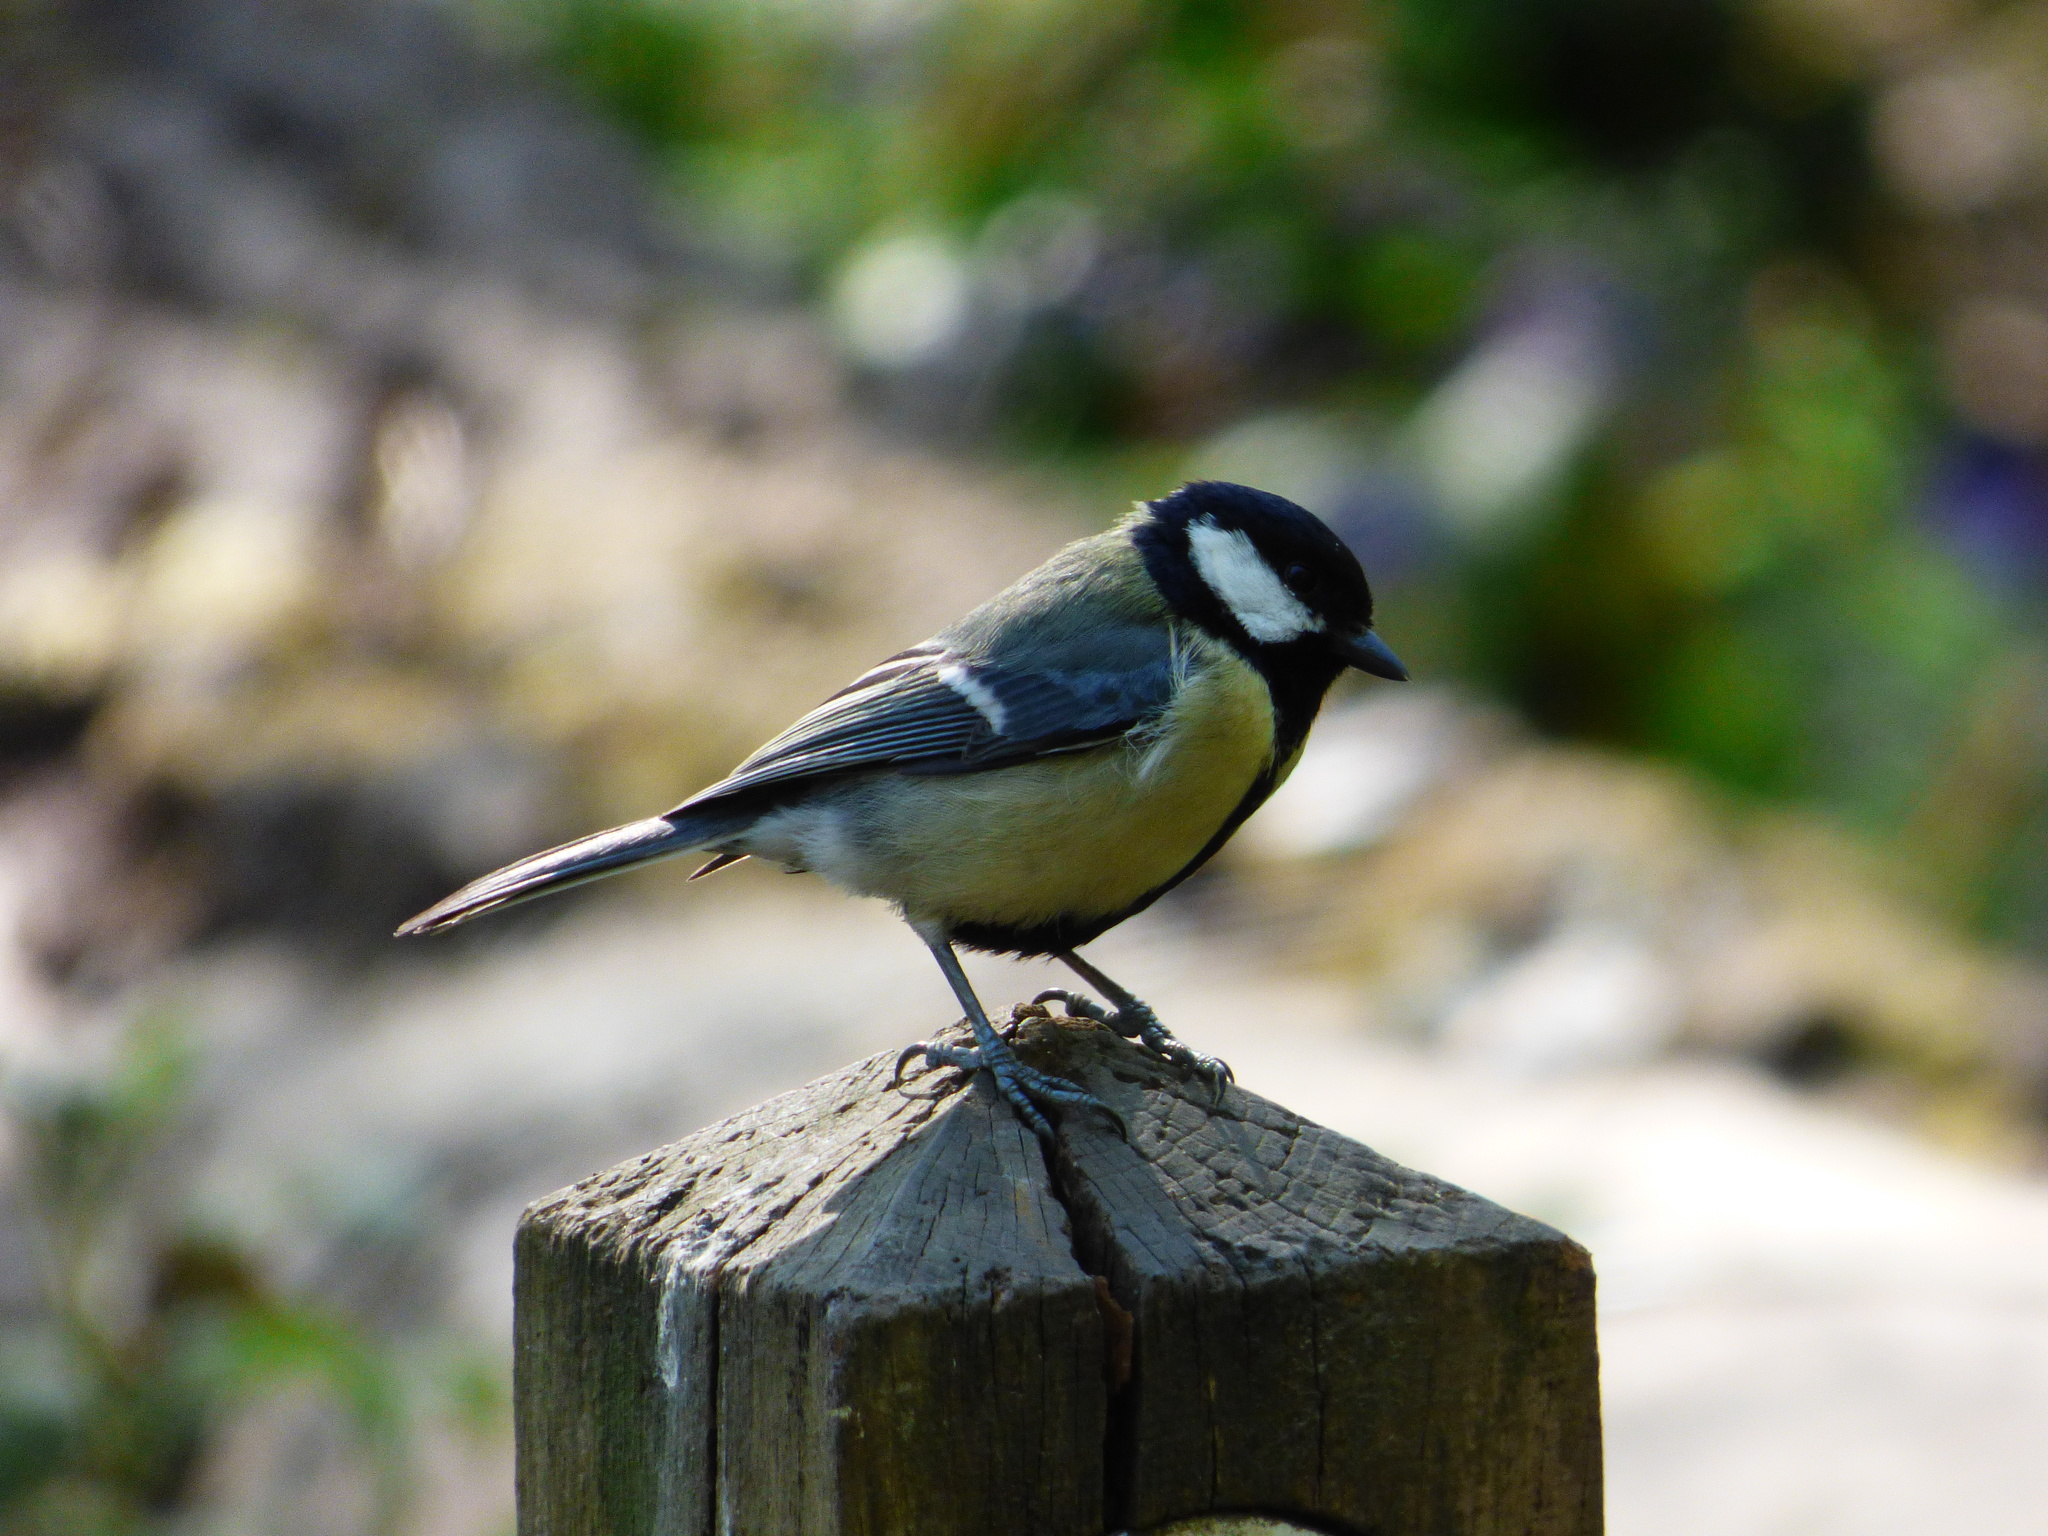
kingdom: Animalia
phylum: Chordata
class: Aves
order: Passeriformes
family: Paridae
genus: Parus
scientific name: Parus major
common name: Great tit
